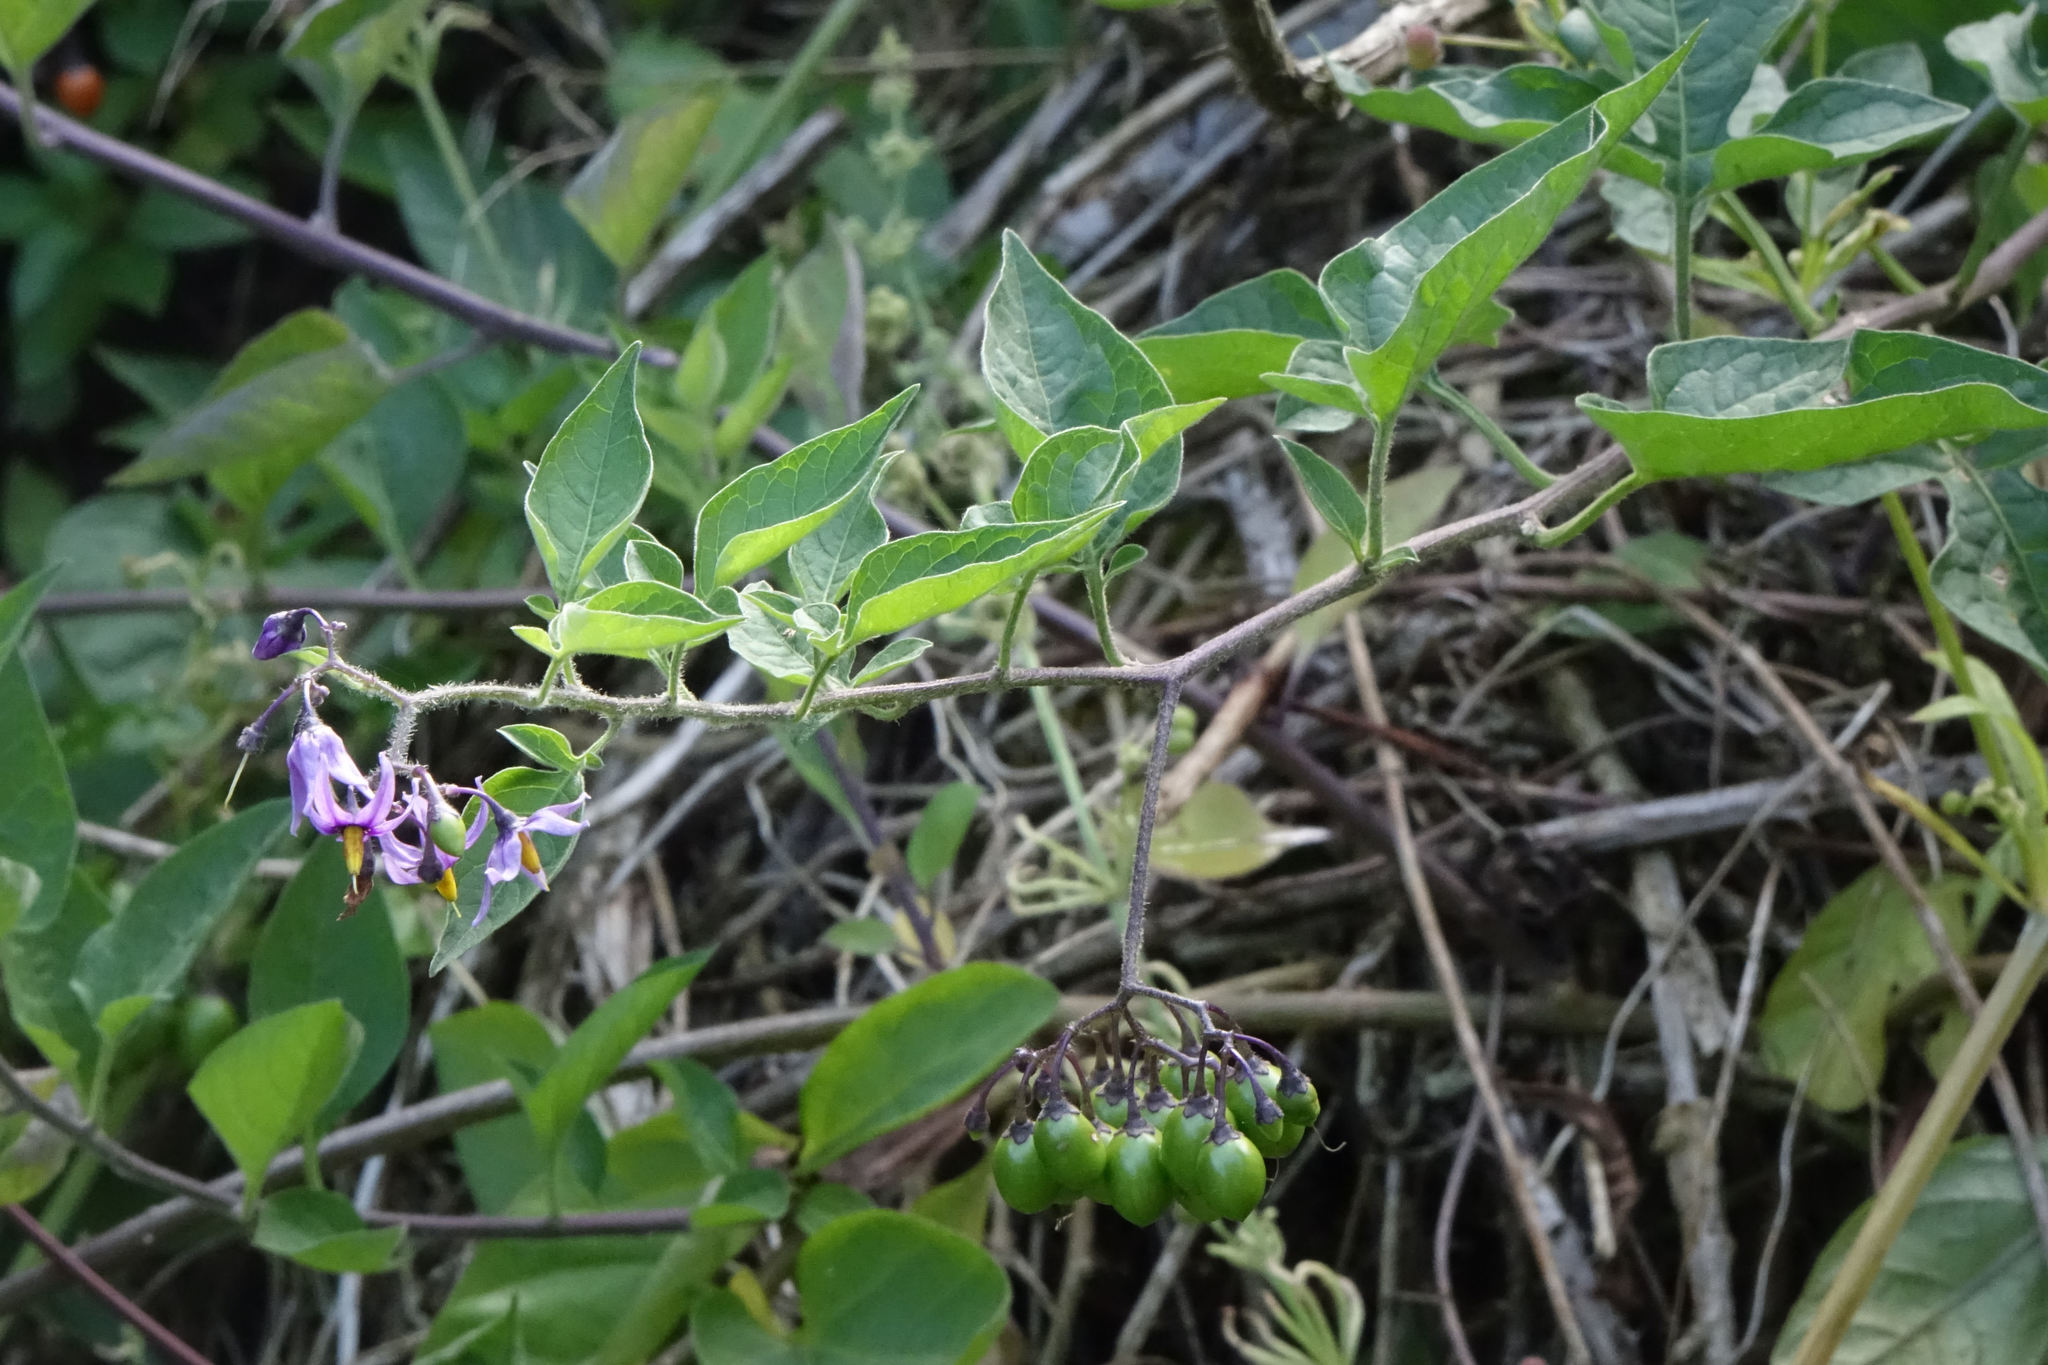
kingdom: Plantae
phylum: Tracheophyta
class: Magnoliopsida
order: Solanales
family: Solanaceae
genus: Solanum
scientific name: Solanum dulcamara
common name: Climbing nightshade
